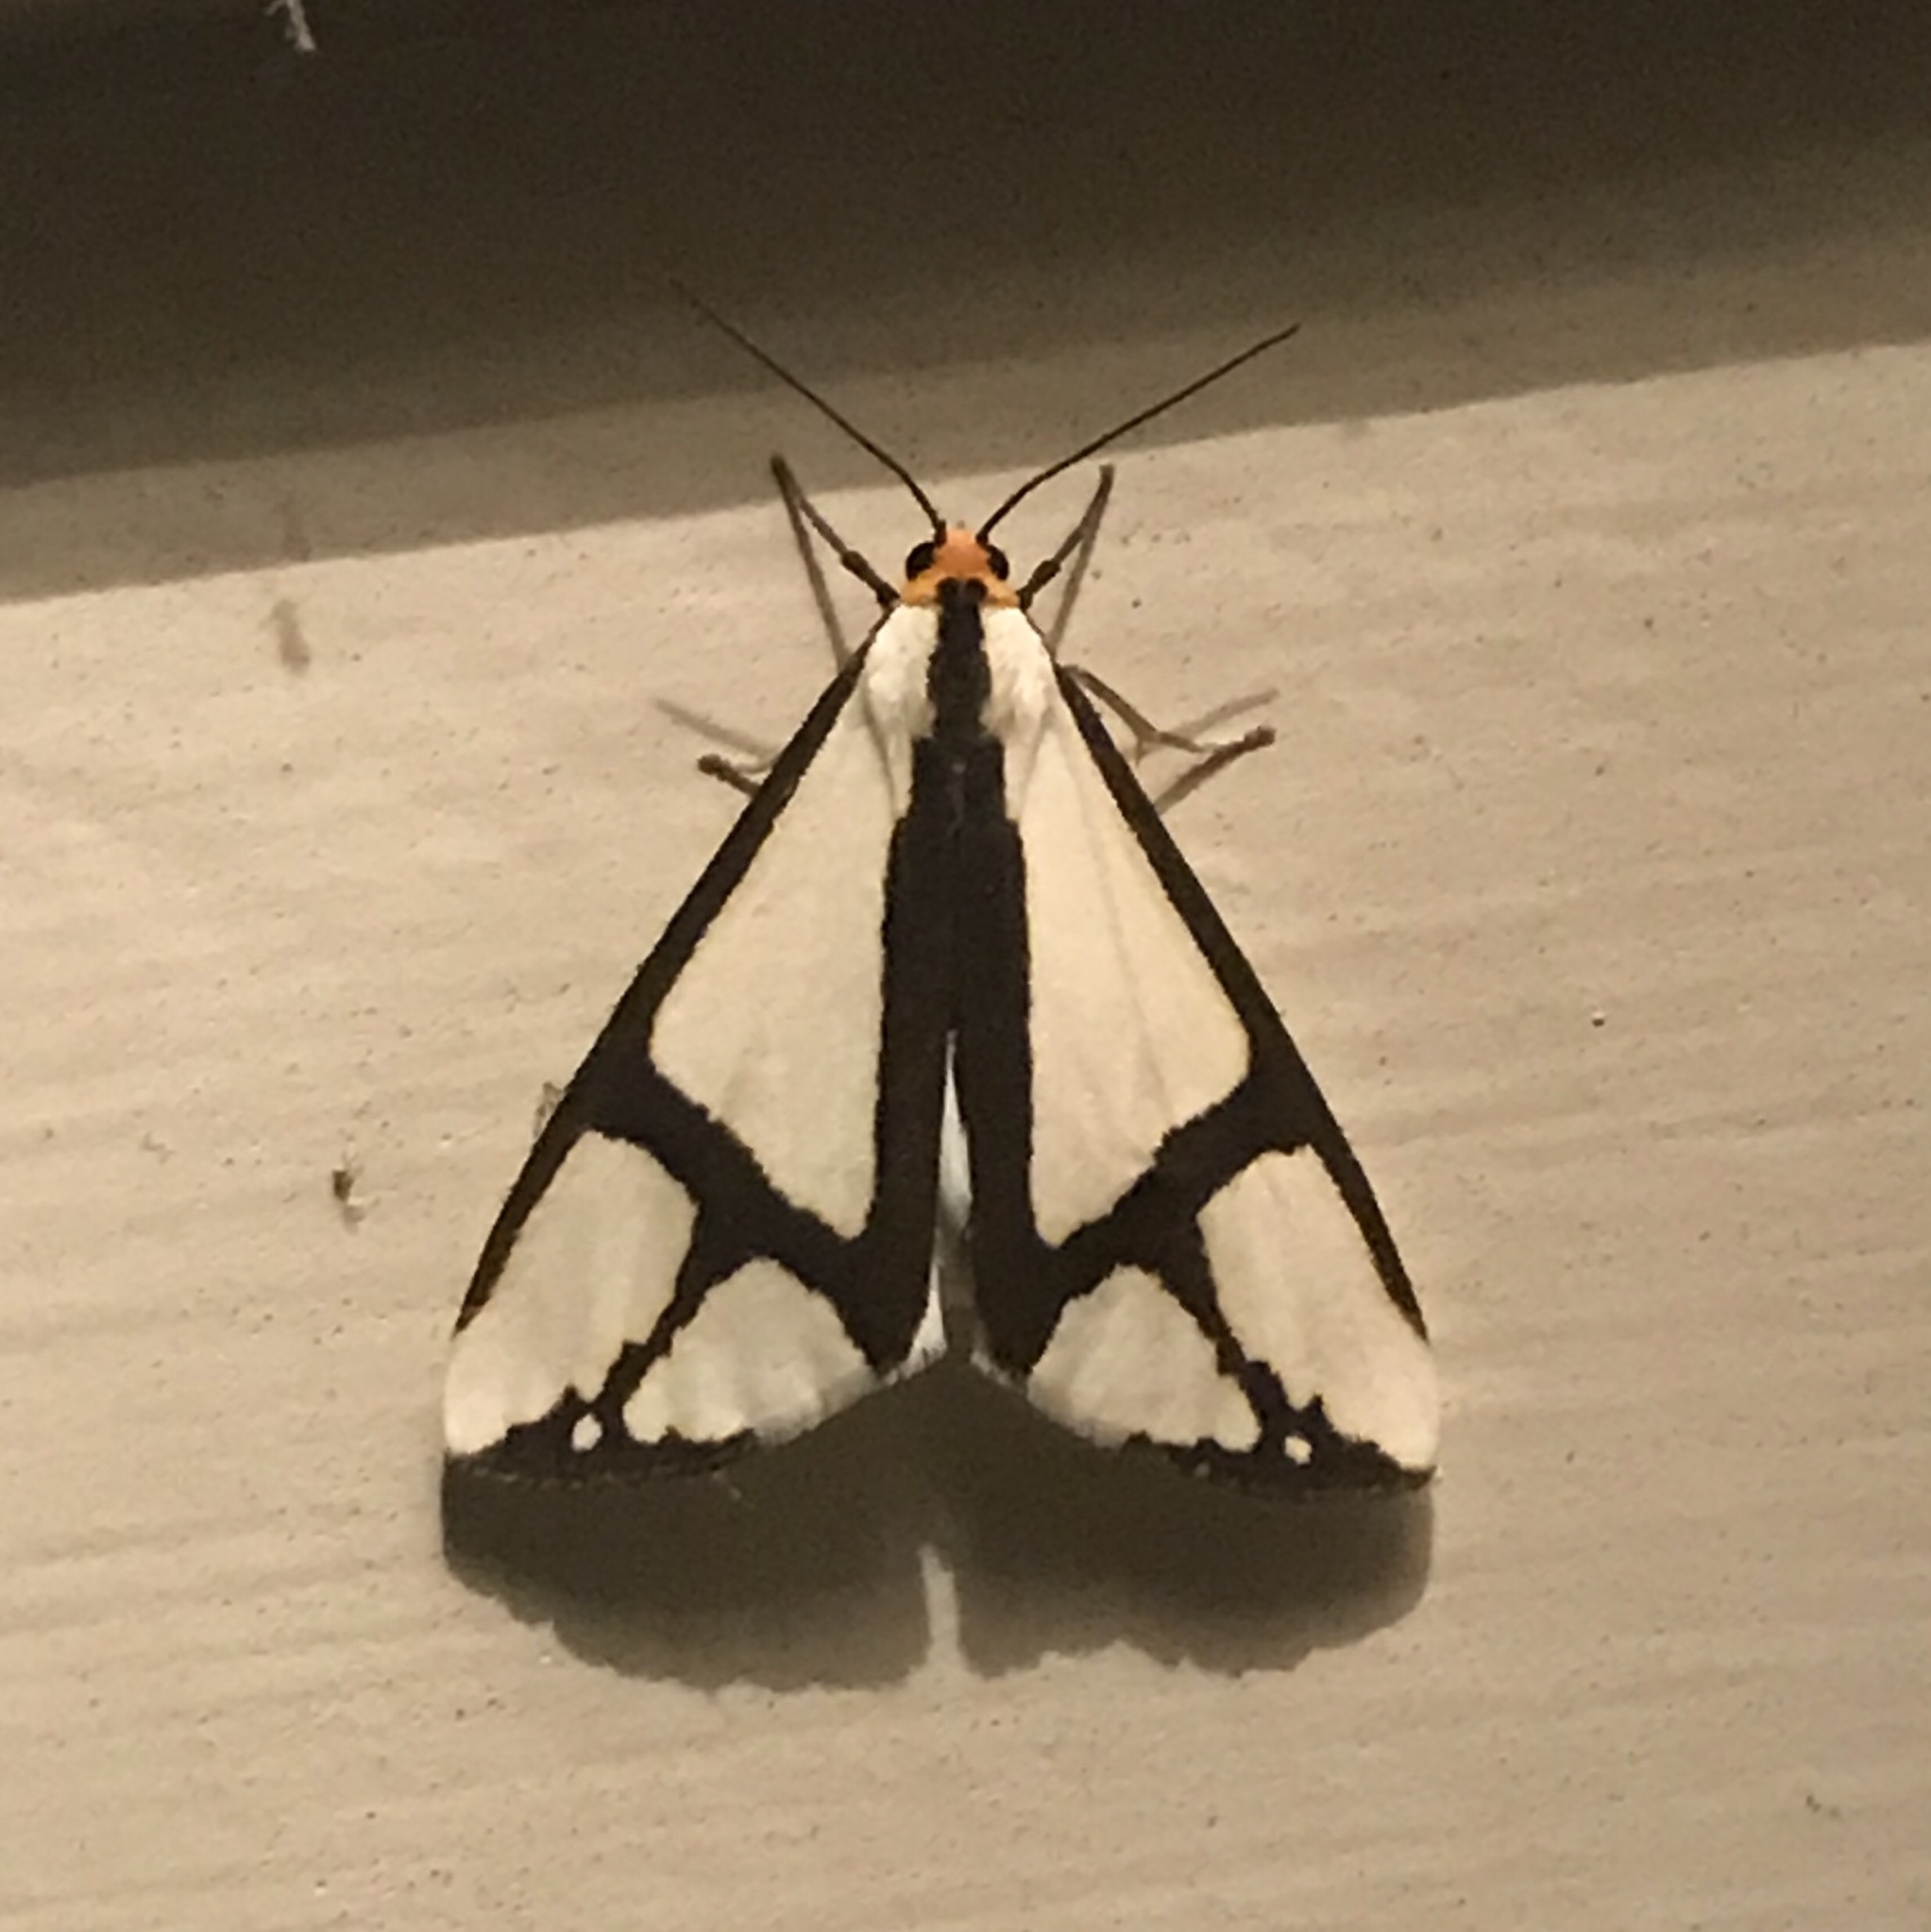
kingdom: Animalia
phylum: Arthropoda
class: Insecta
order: Lepidoptera
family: Erebidae
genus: Haploa
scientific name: Haploa contigua
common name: Neighbor moth
